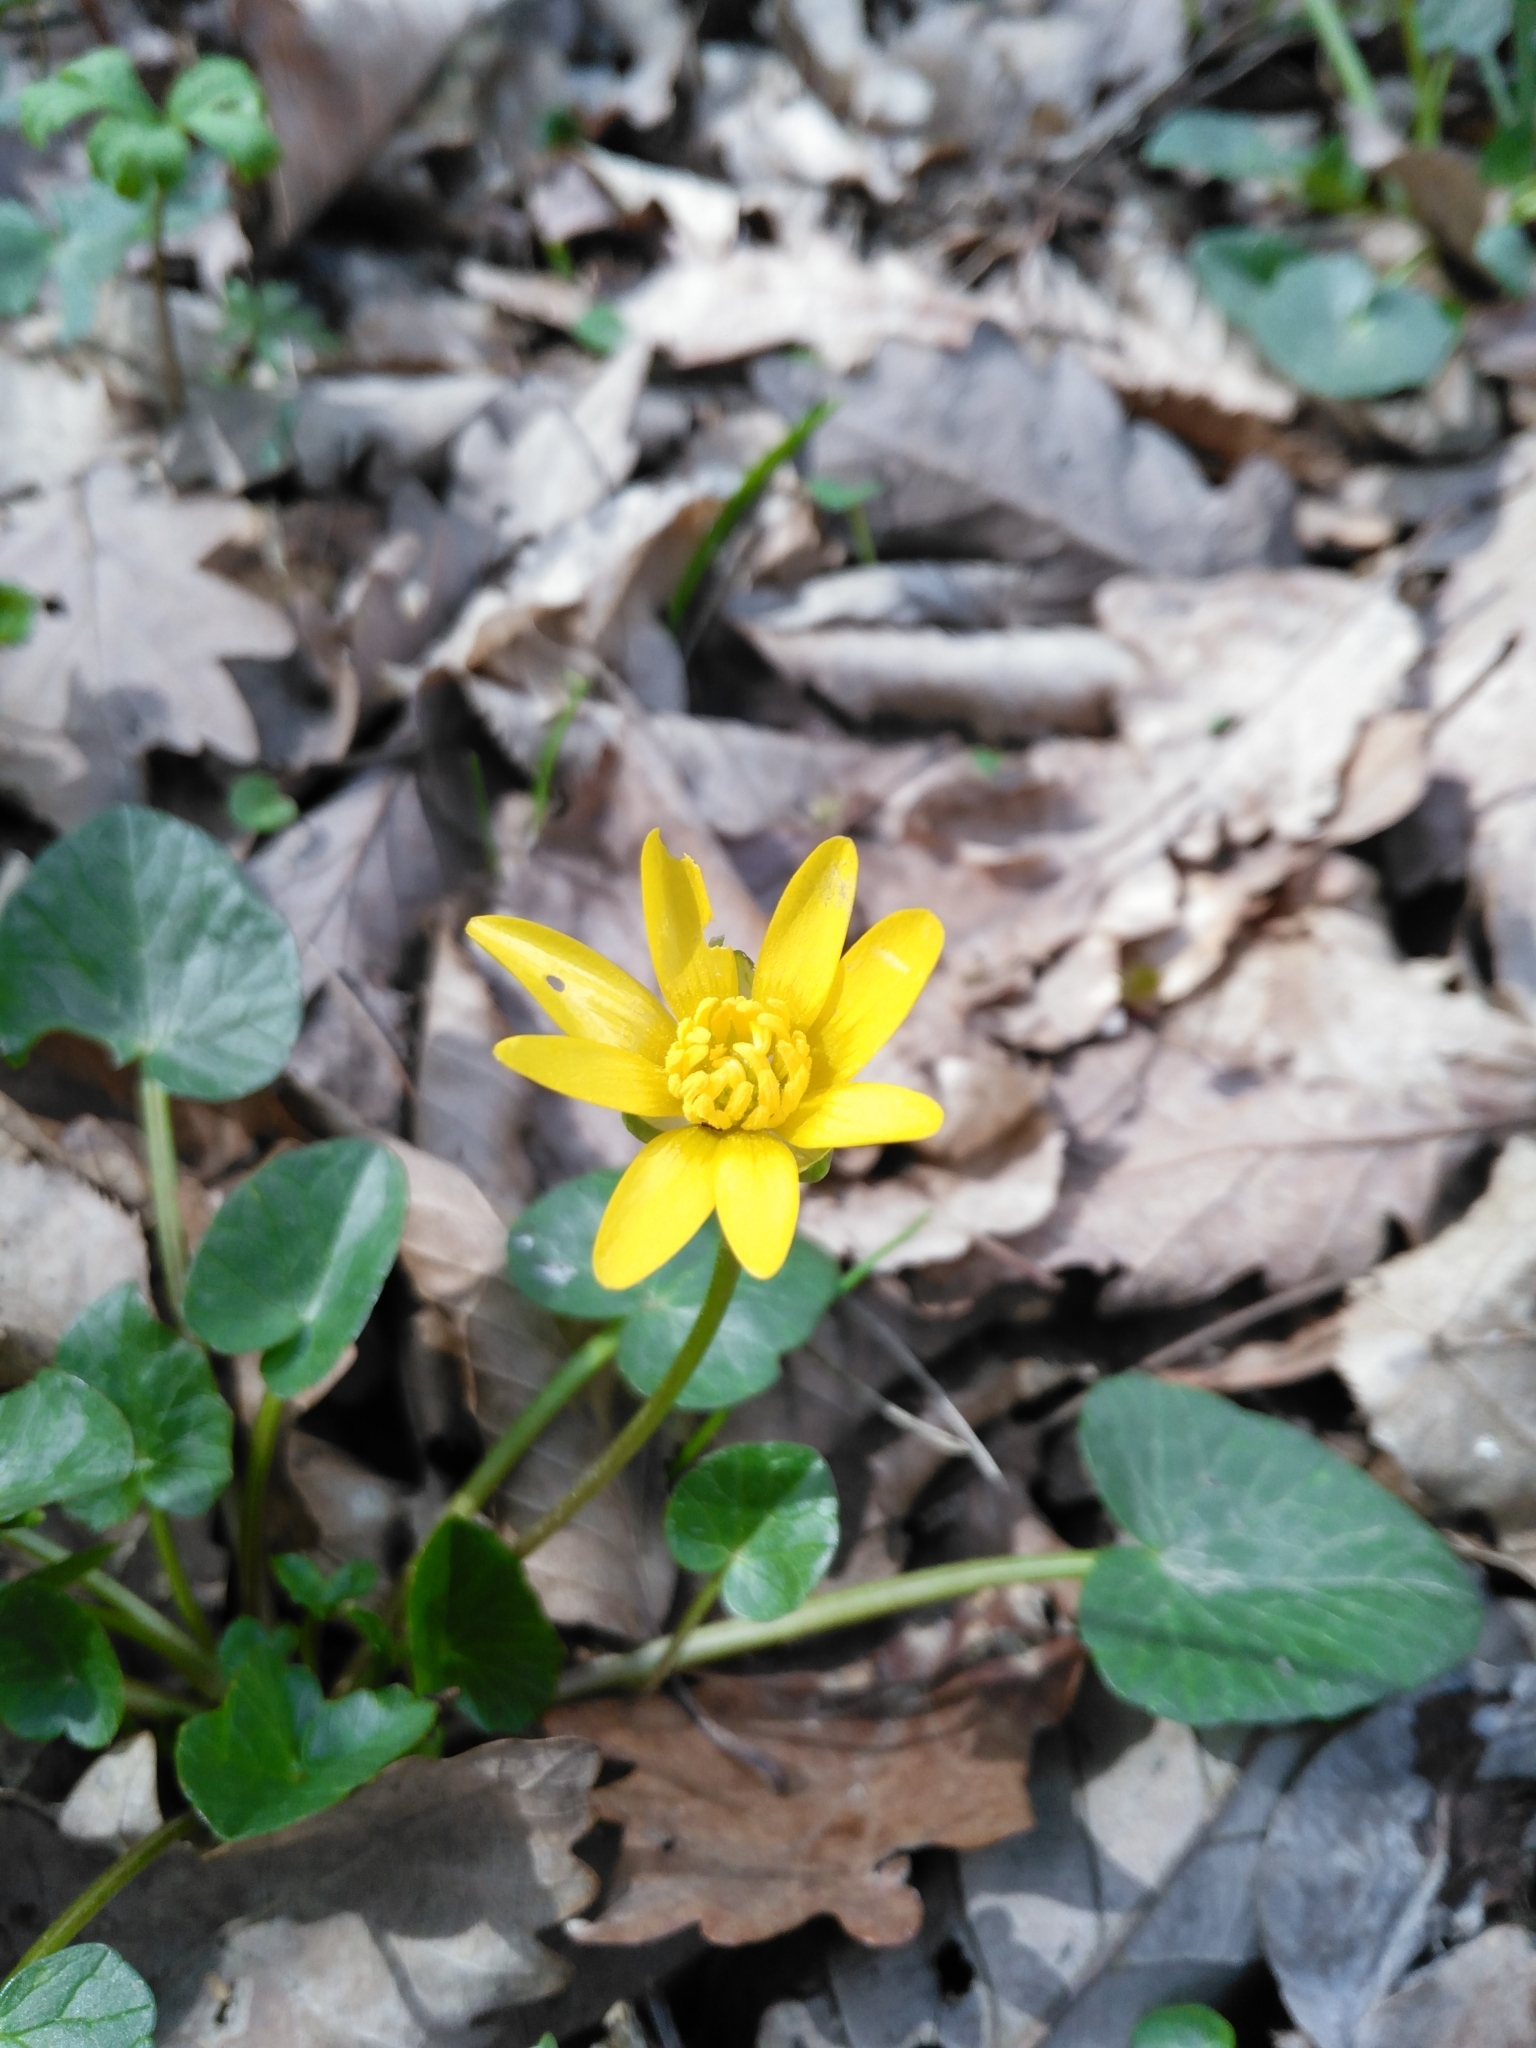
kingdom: Plantae
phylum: Tracheophyta
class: Magnoliopsida
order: Ranunculales
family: Ranunculaceae
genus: Ficaria
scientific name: Ficaria verna
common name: Lesser celandine
